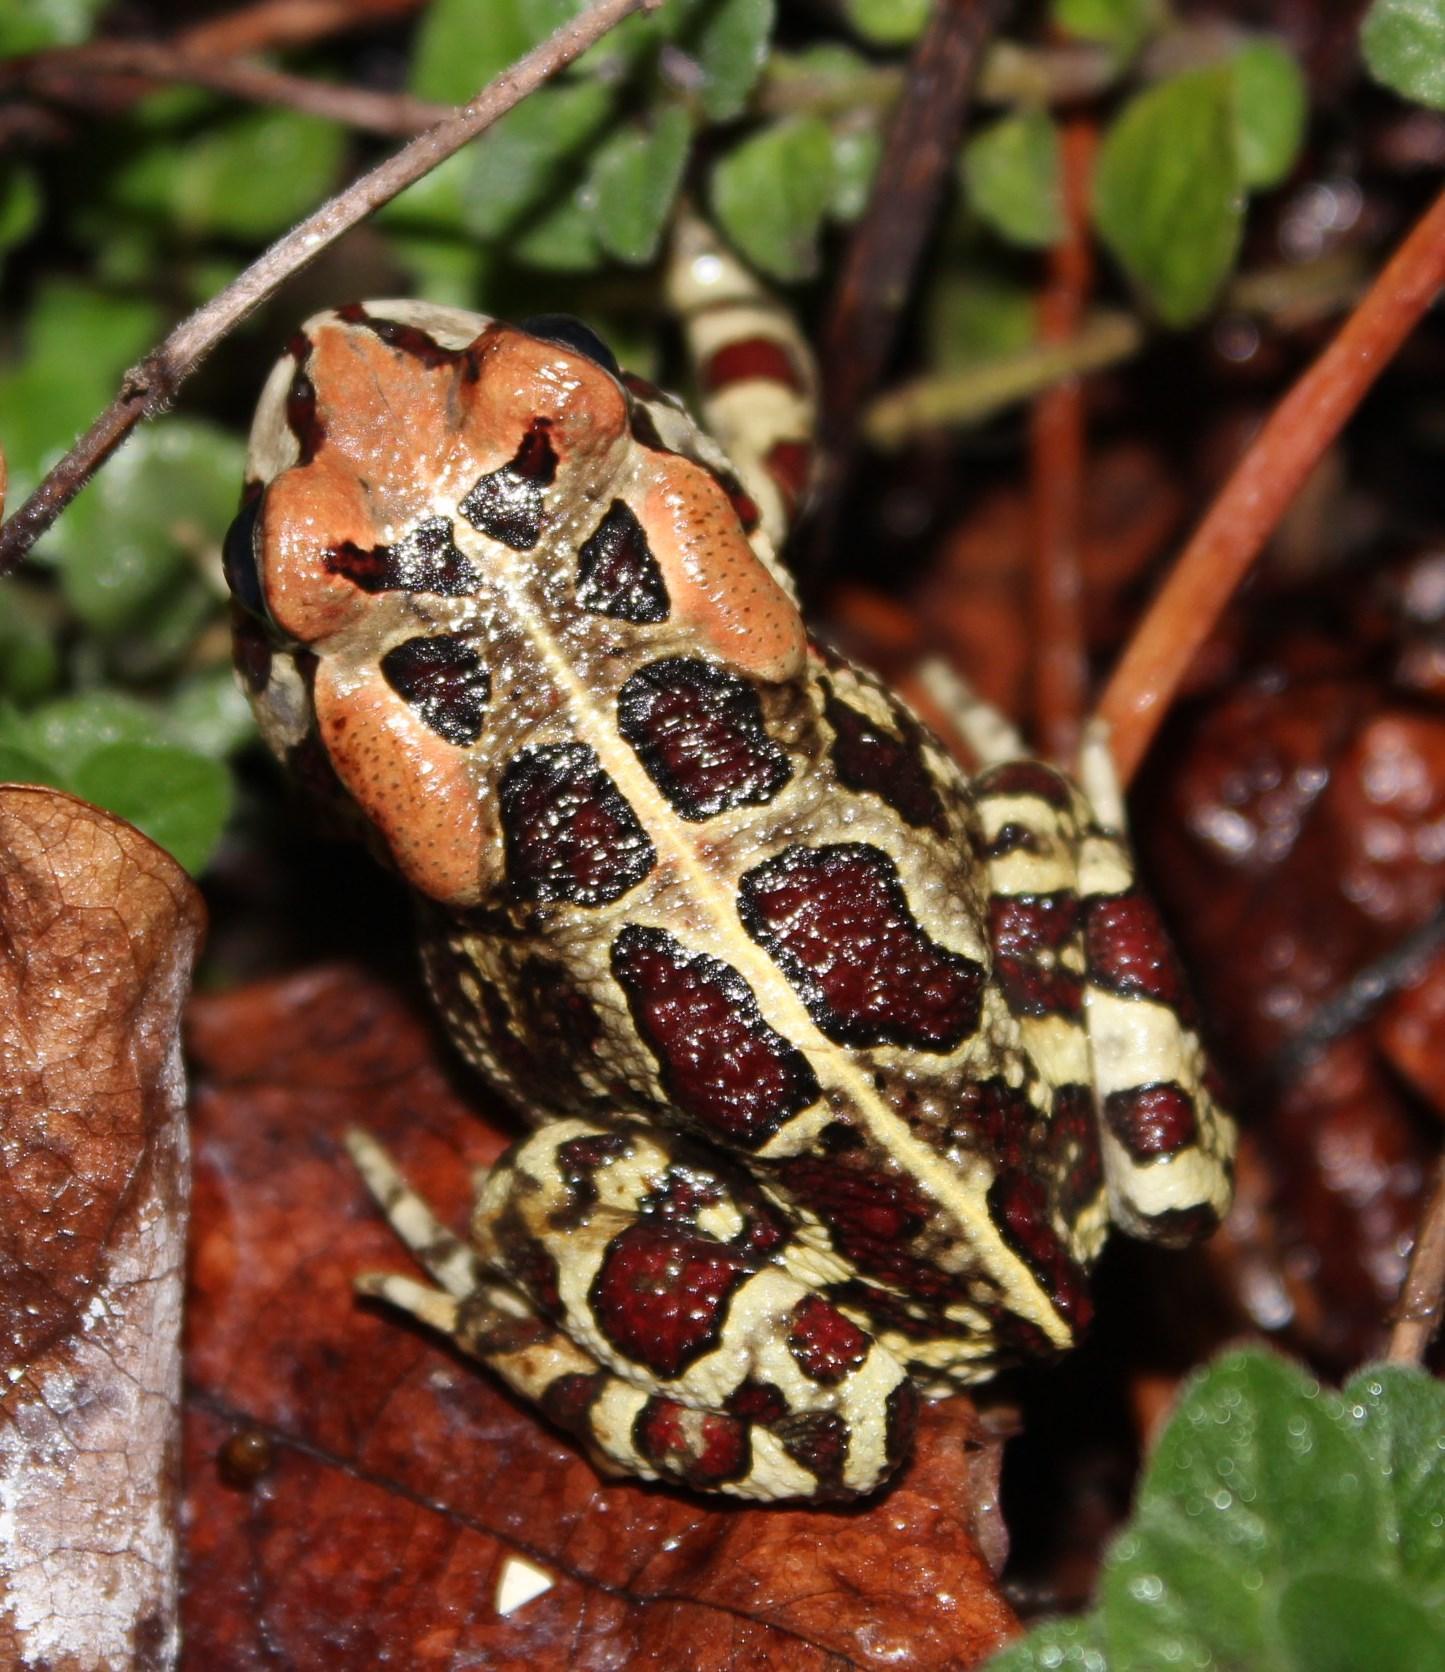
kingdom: Animalia
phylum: Chordata
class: Amphibia
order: Anura
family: Bufonidae
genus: Sclerophrys
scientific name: Sclerophrys pantherina
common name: Panther toad
